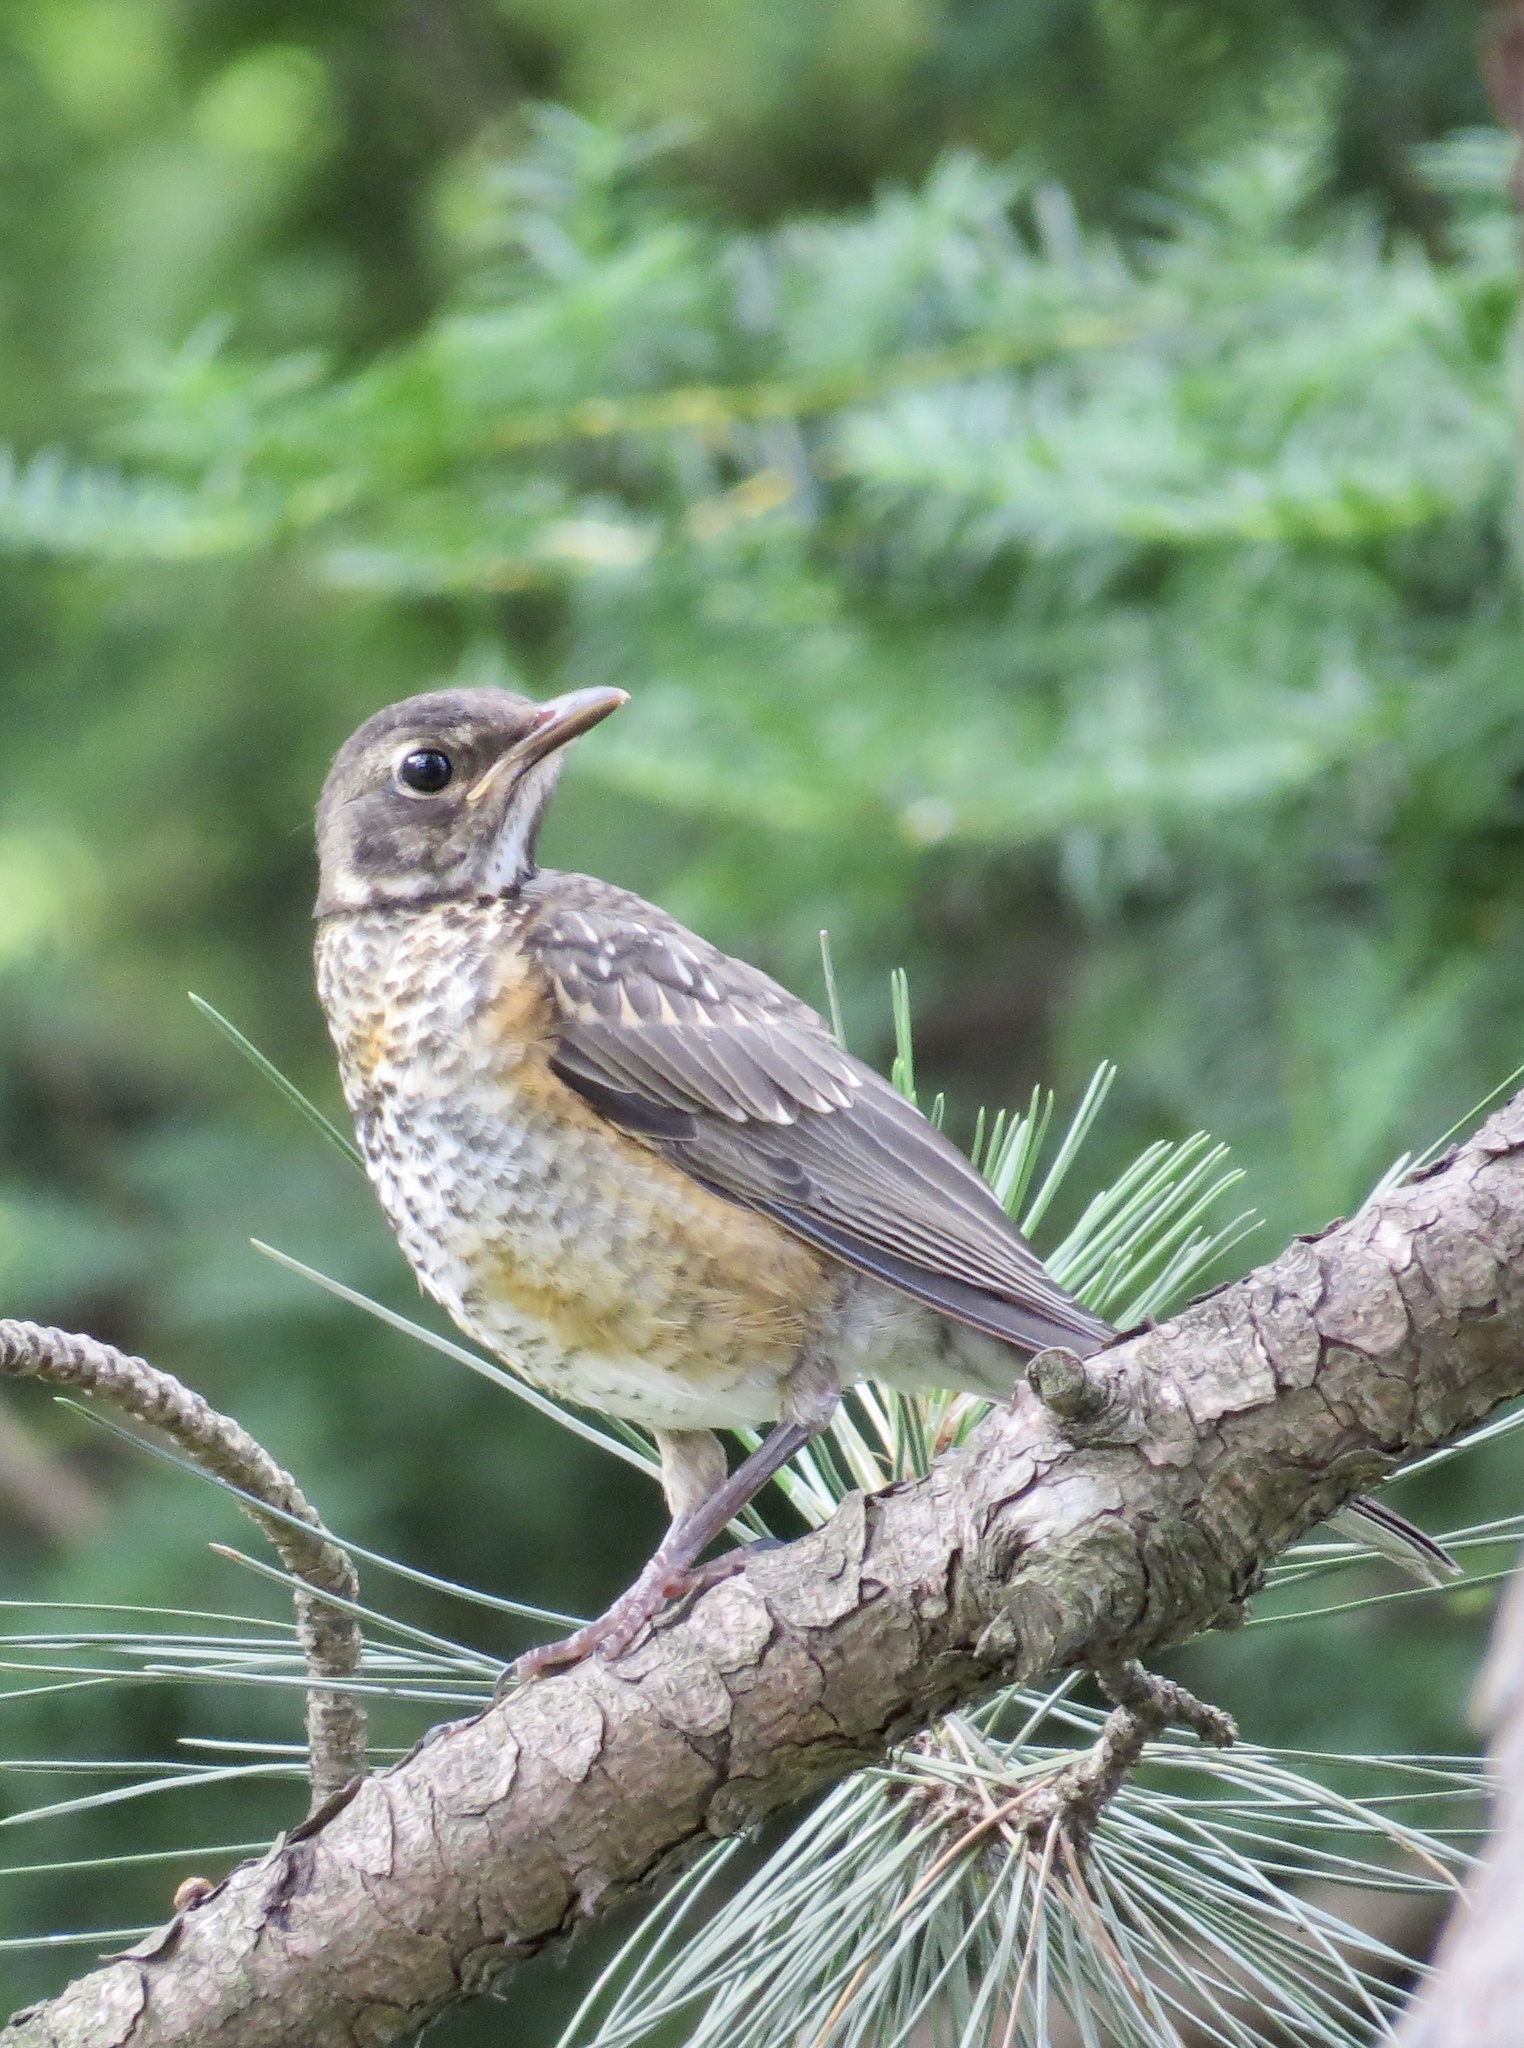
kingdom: Animalia
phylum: Chordata
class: Aves
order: Passeriformes
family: Turdidae
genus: Turdus
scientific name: Turdus migratorius
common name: American robin
